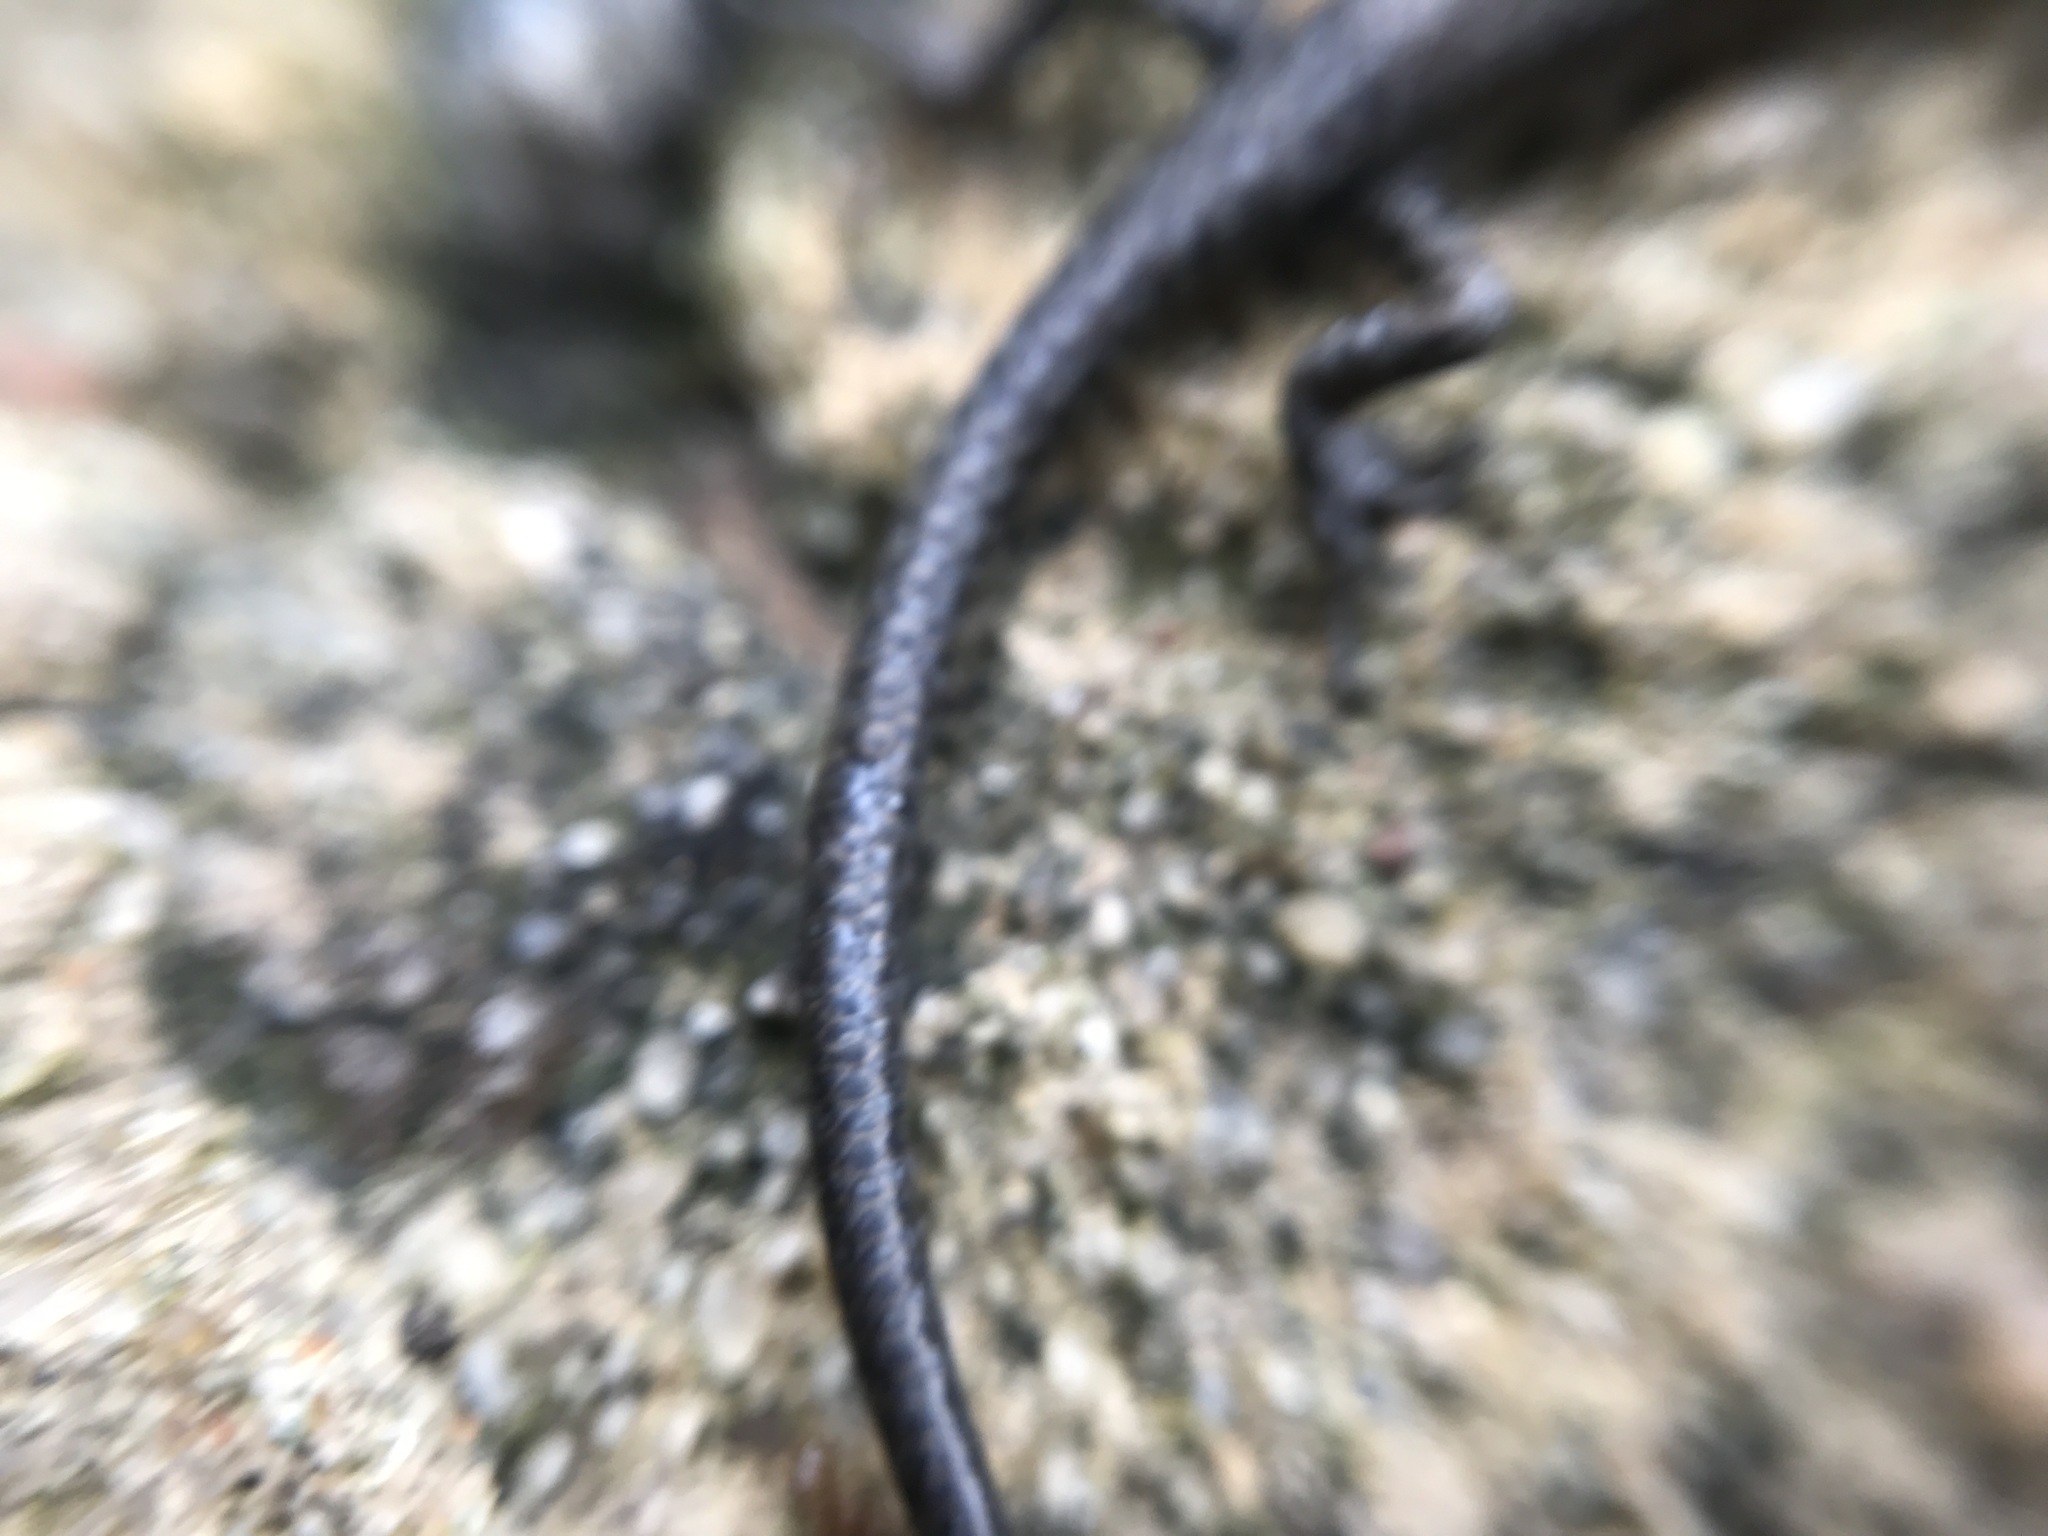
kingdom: Animalia
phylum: Chordata
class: Squamata
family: Scincidae
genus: Lampropholis
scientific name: Lampropholis guichenoti
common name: Garden skink
